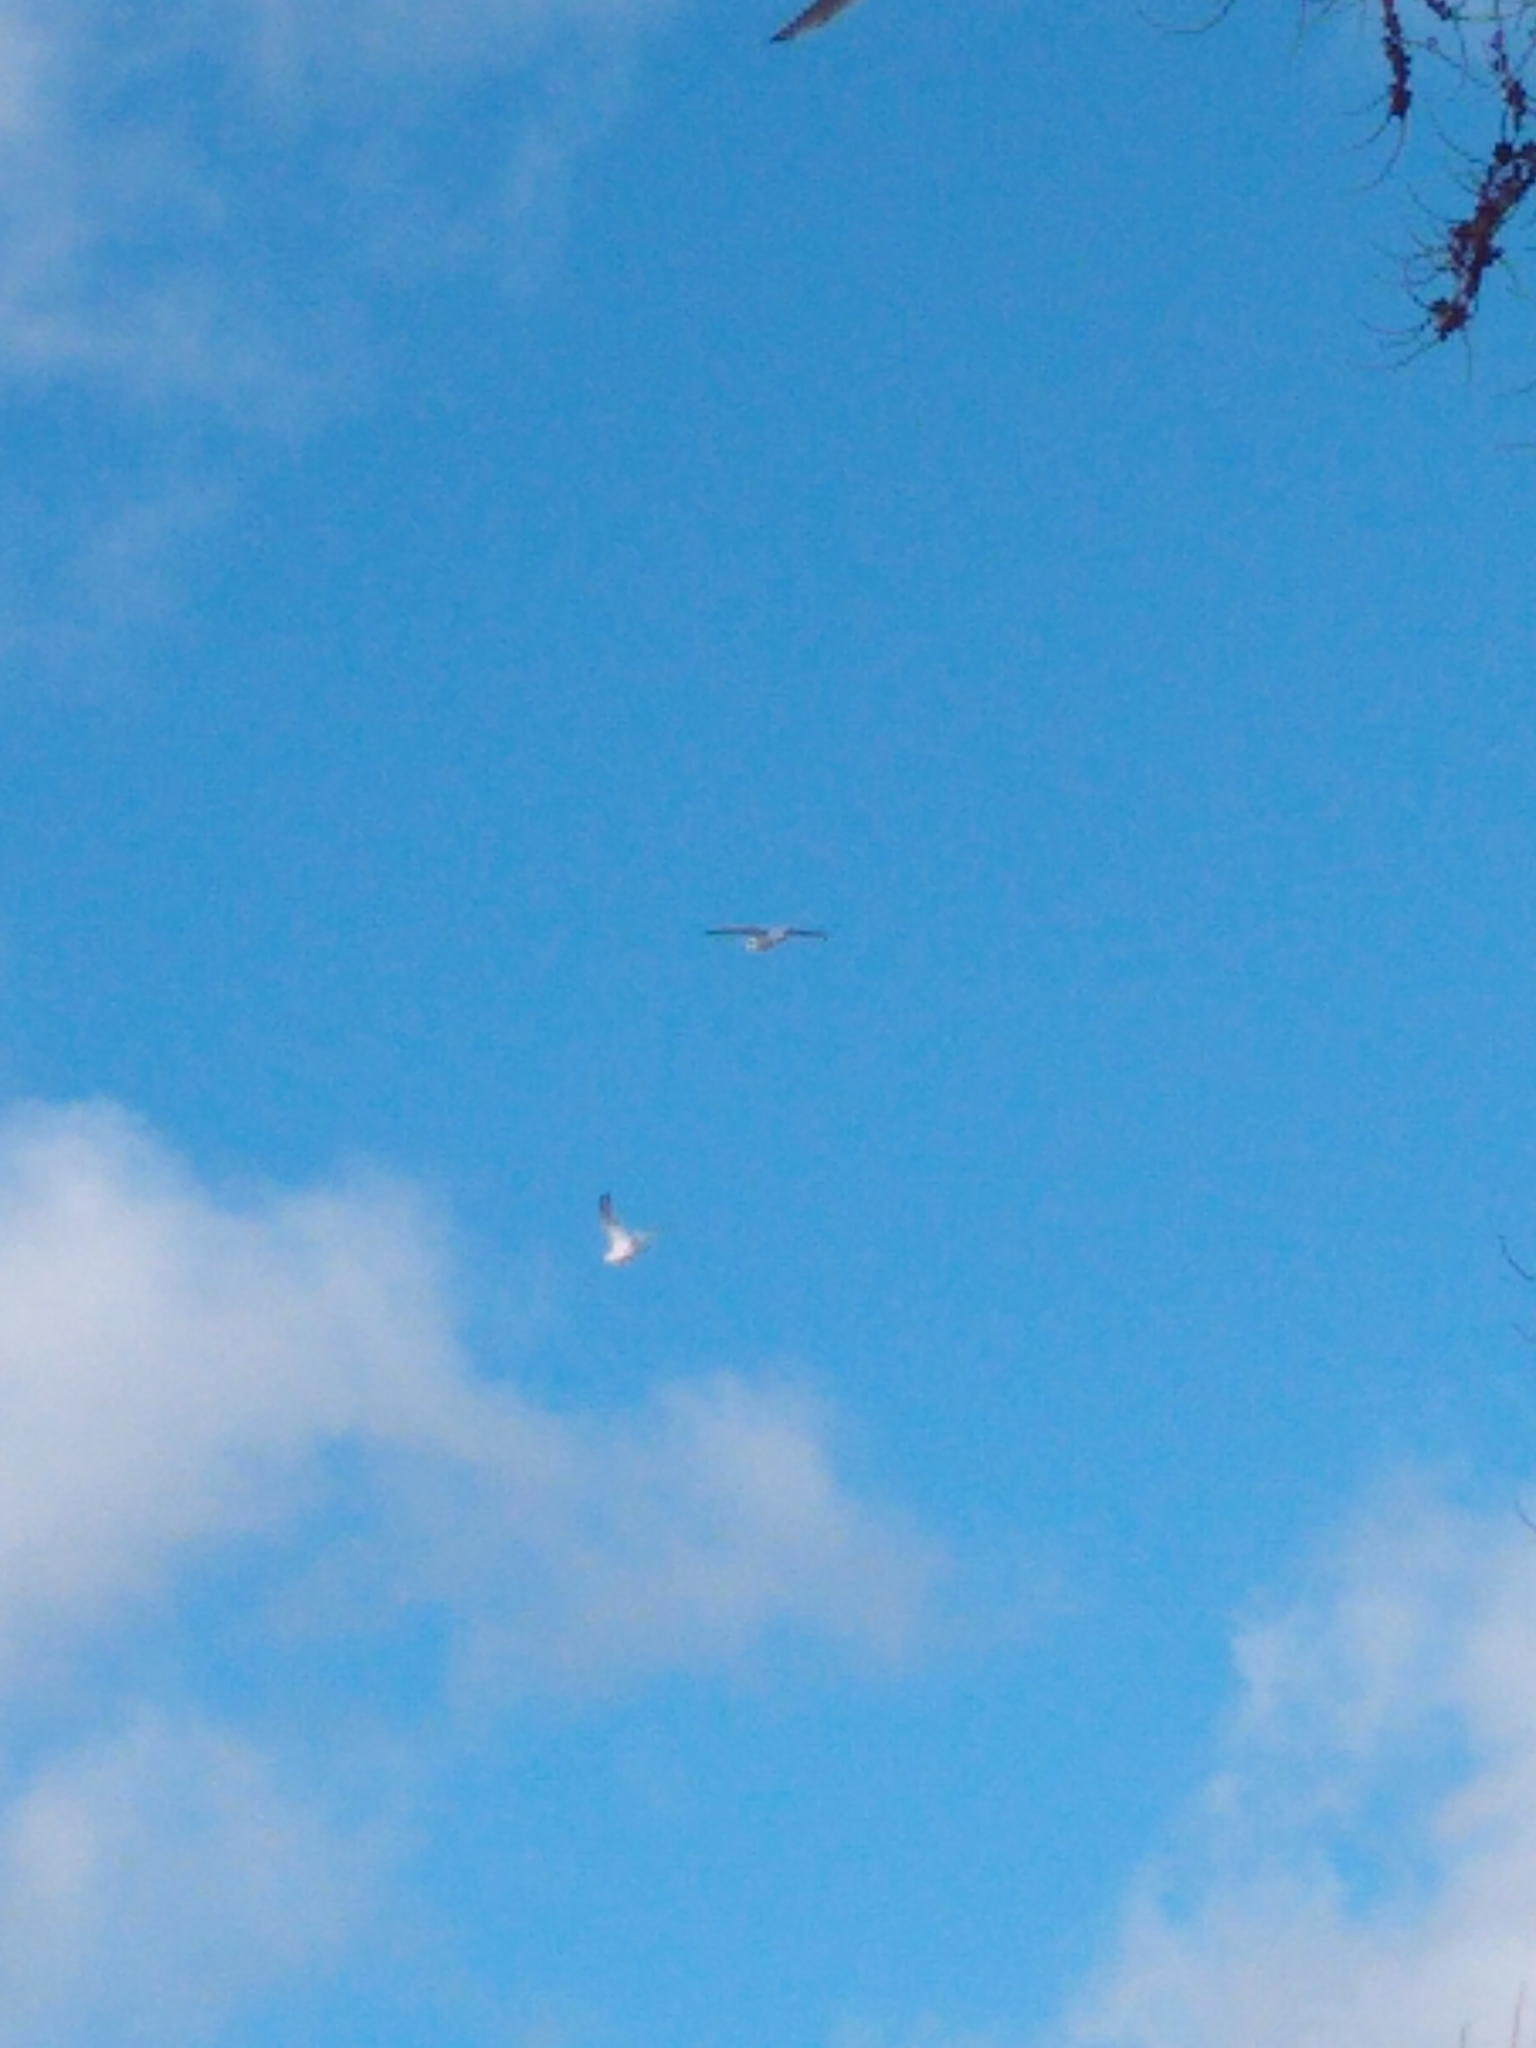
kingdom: Animalia
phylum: Chordata
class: Aves
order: Charadriiformes
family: Laridae
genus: Larus
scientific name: Larus delawarensis
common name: Ring-billed gull
